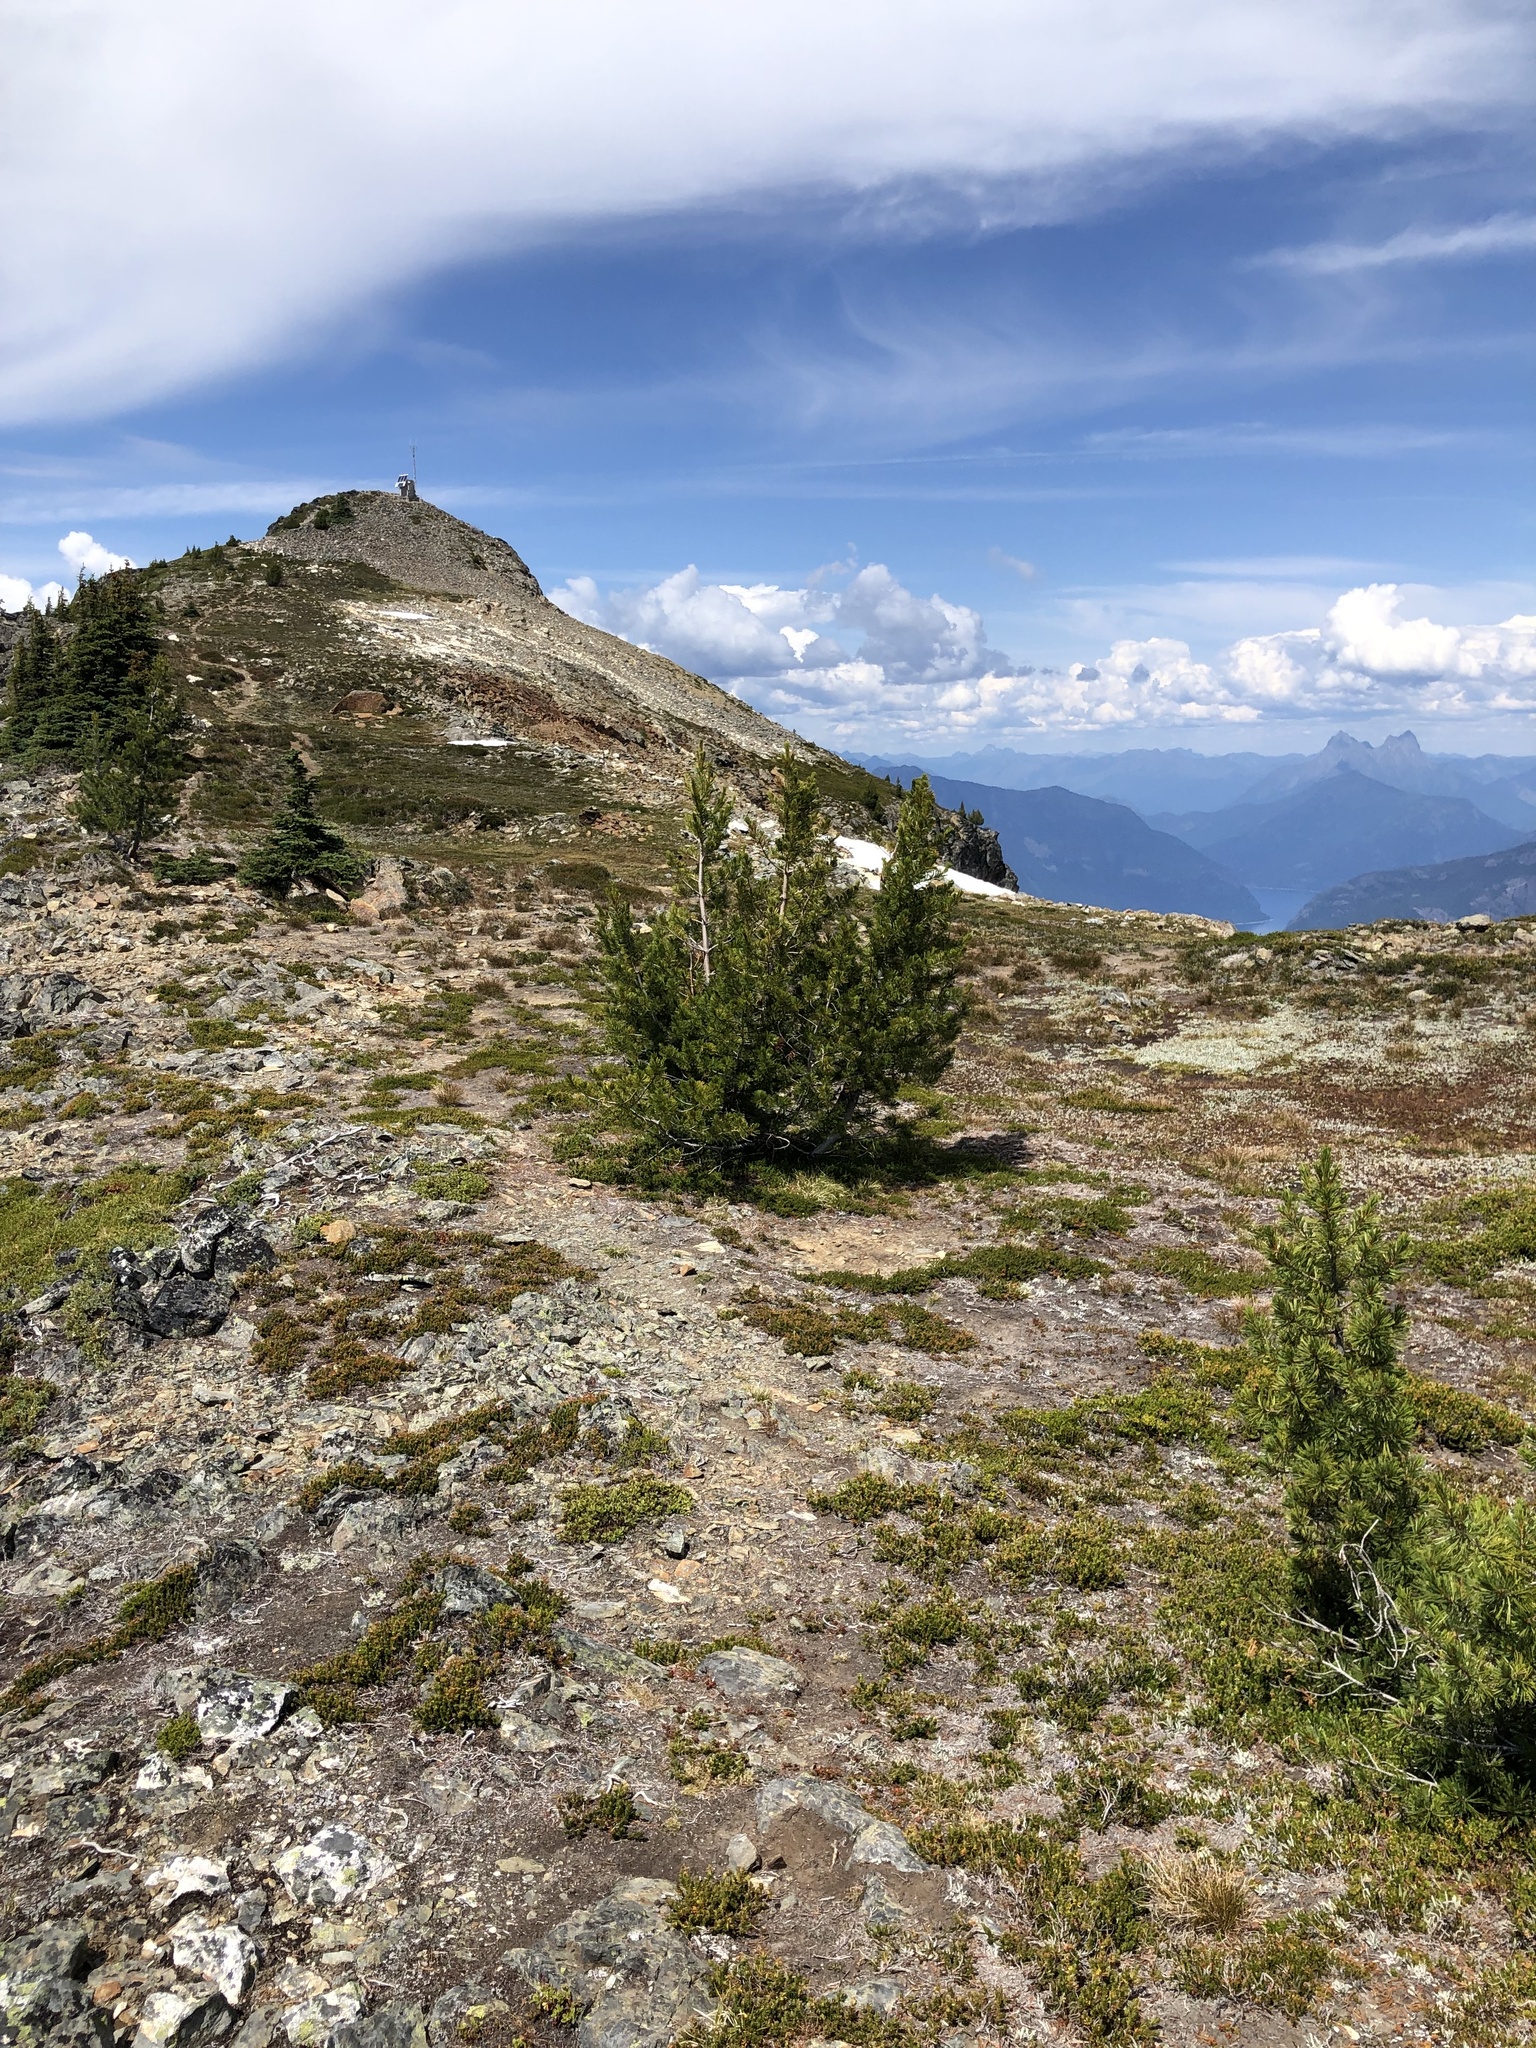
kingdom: Plantae
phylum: Tracheophyta
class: Pinopsida
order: Pinales
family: Pinaceae
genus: Pinus
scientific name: Pinus albicaulis
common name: Whitebark pine
